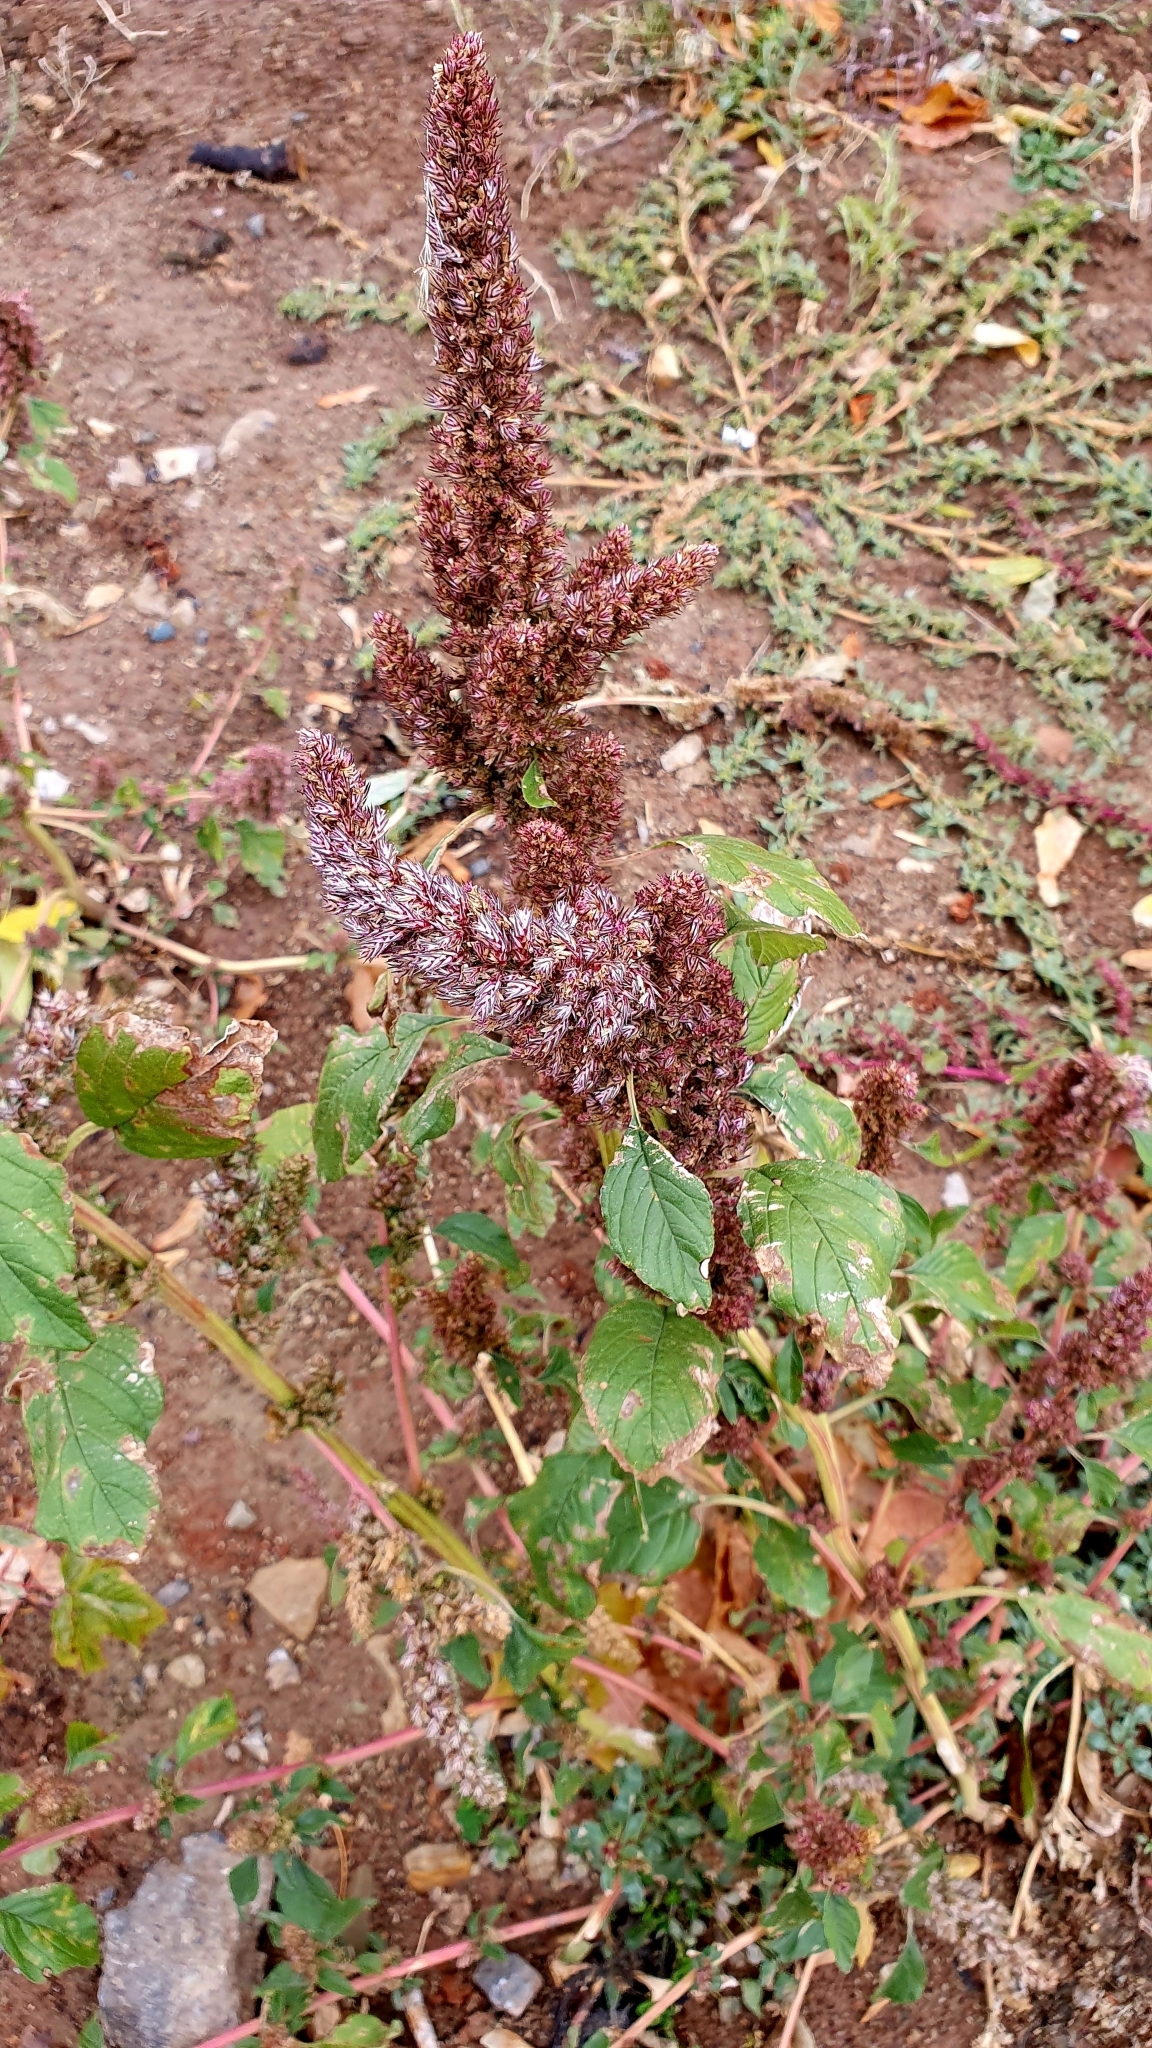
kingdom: Plantae
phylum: Tracheophyta
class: Magnoliopsida
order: Caryophyllales
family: Amaranthaceae
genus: Amaranthus
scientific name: Amaranthus retroflexus
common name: Redroot amaranth
